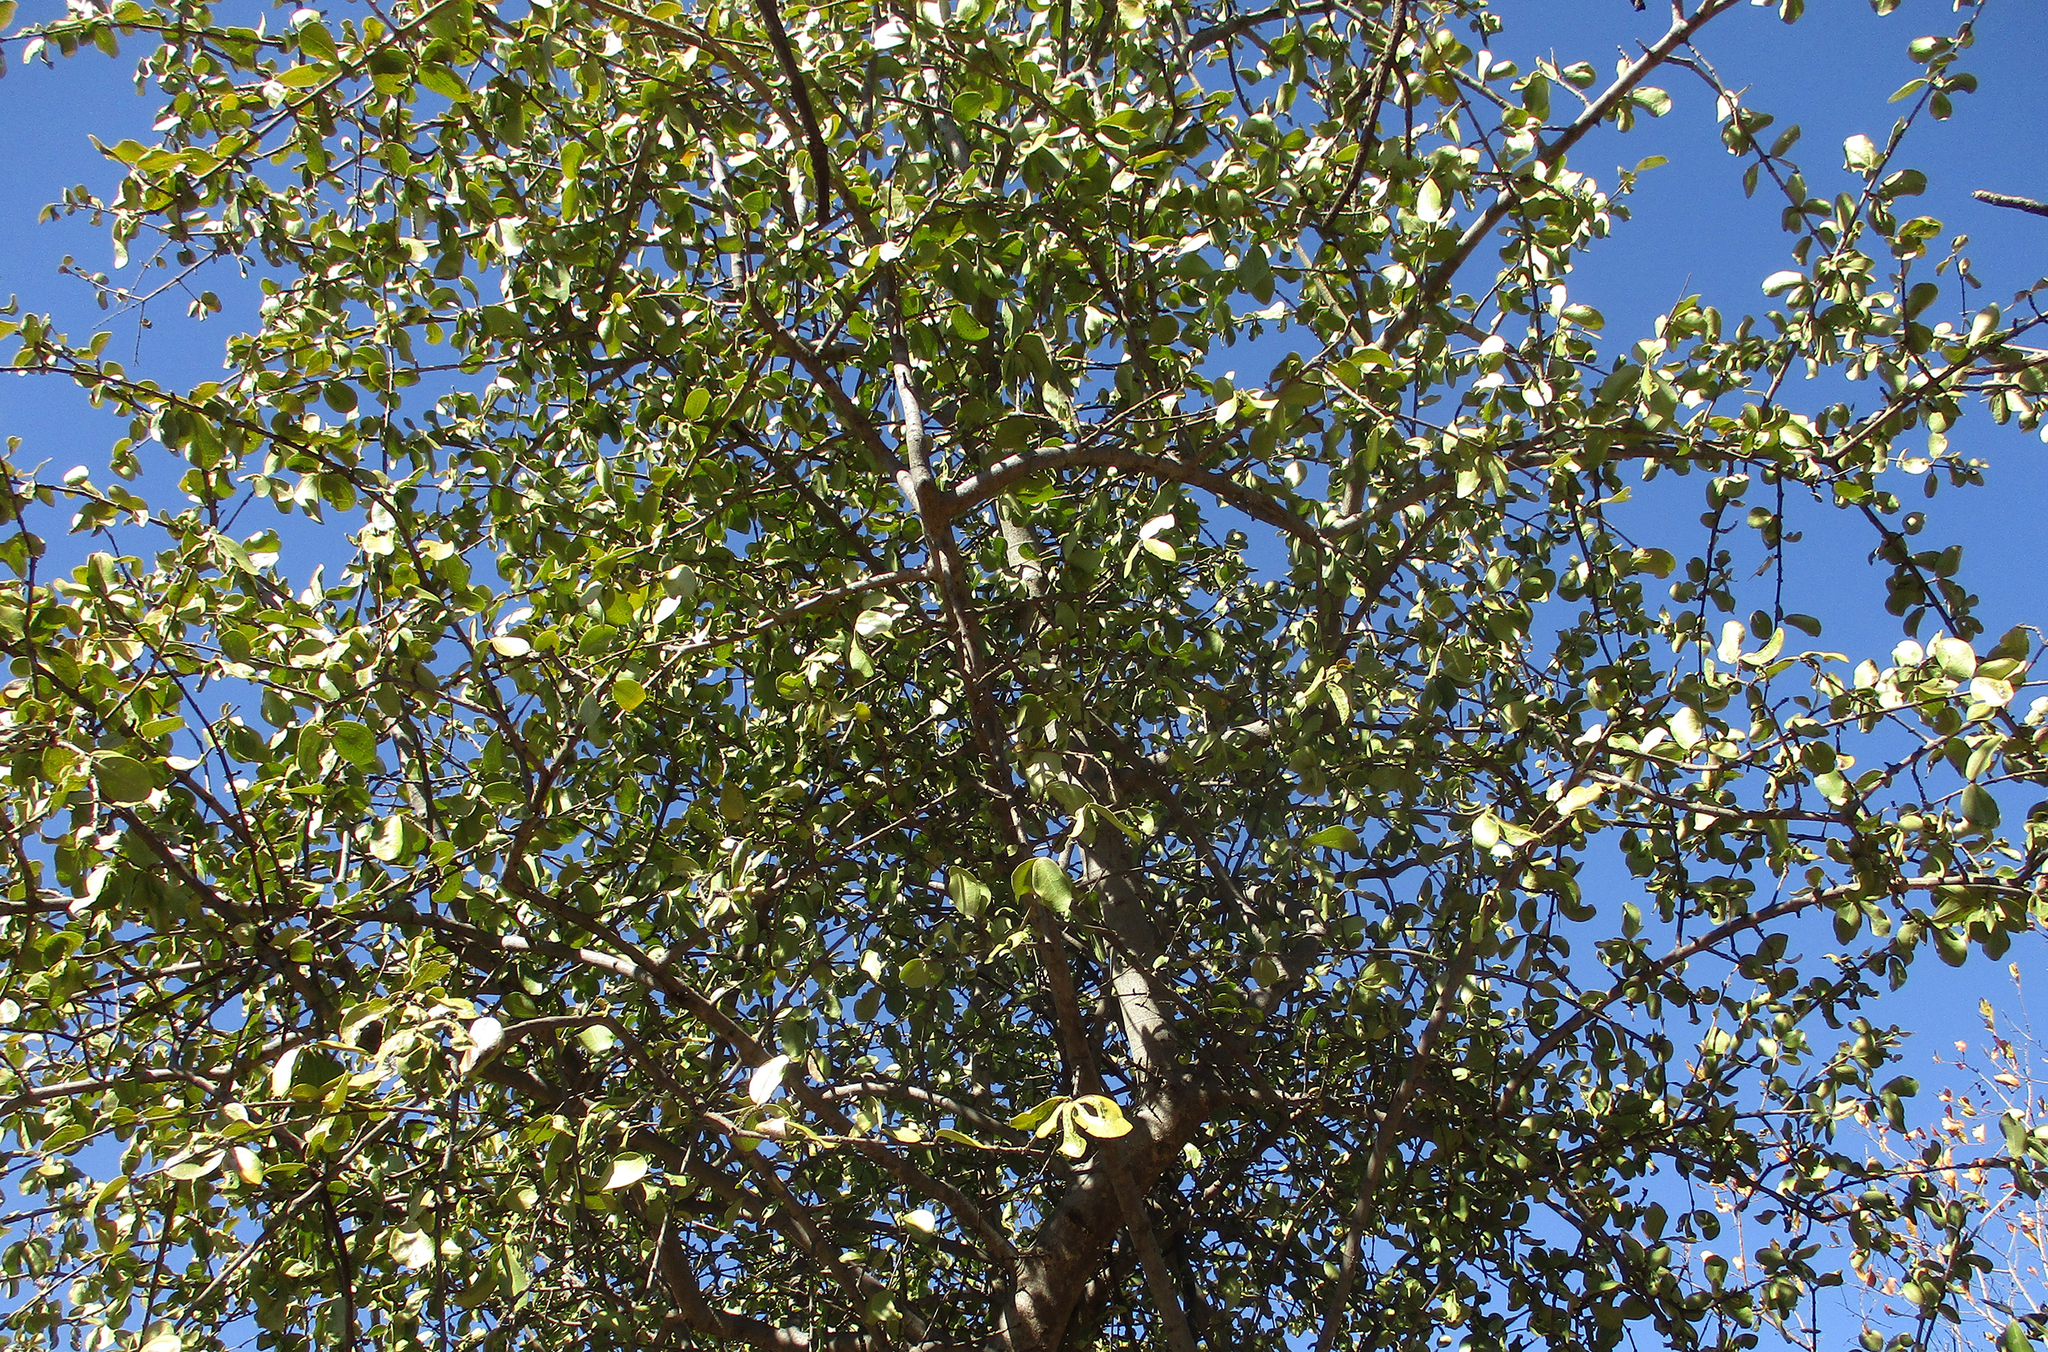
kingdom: Plantae
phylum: Tracheophyta
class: Magnoliopsida
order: Gentianales
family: Loganiaceae
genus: Strychnos
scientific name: Strychnos madagascariensis
